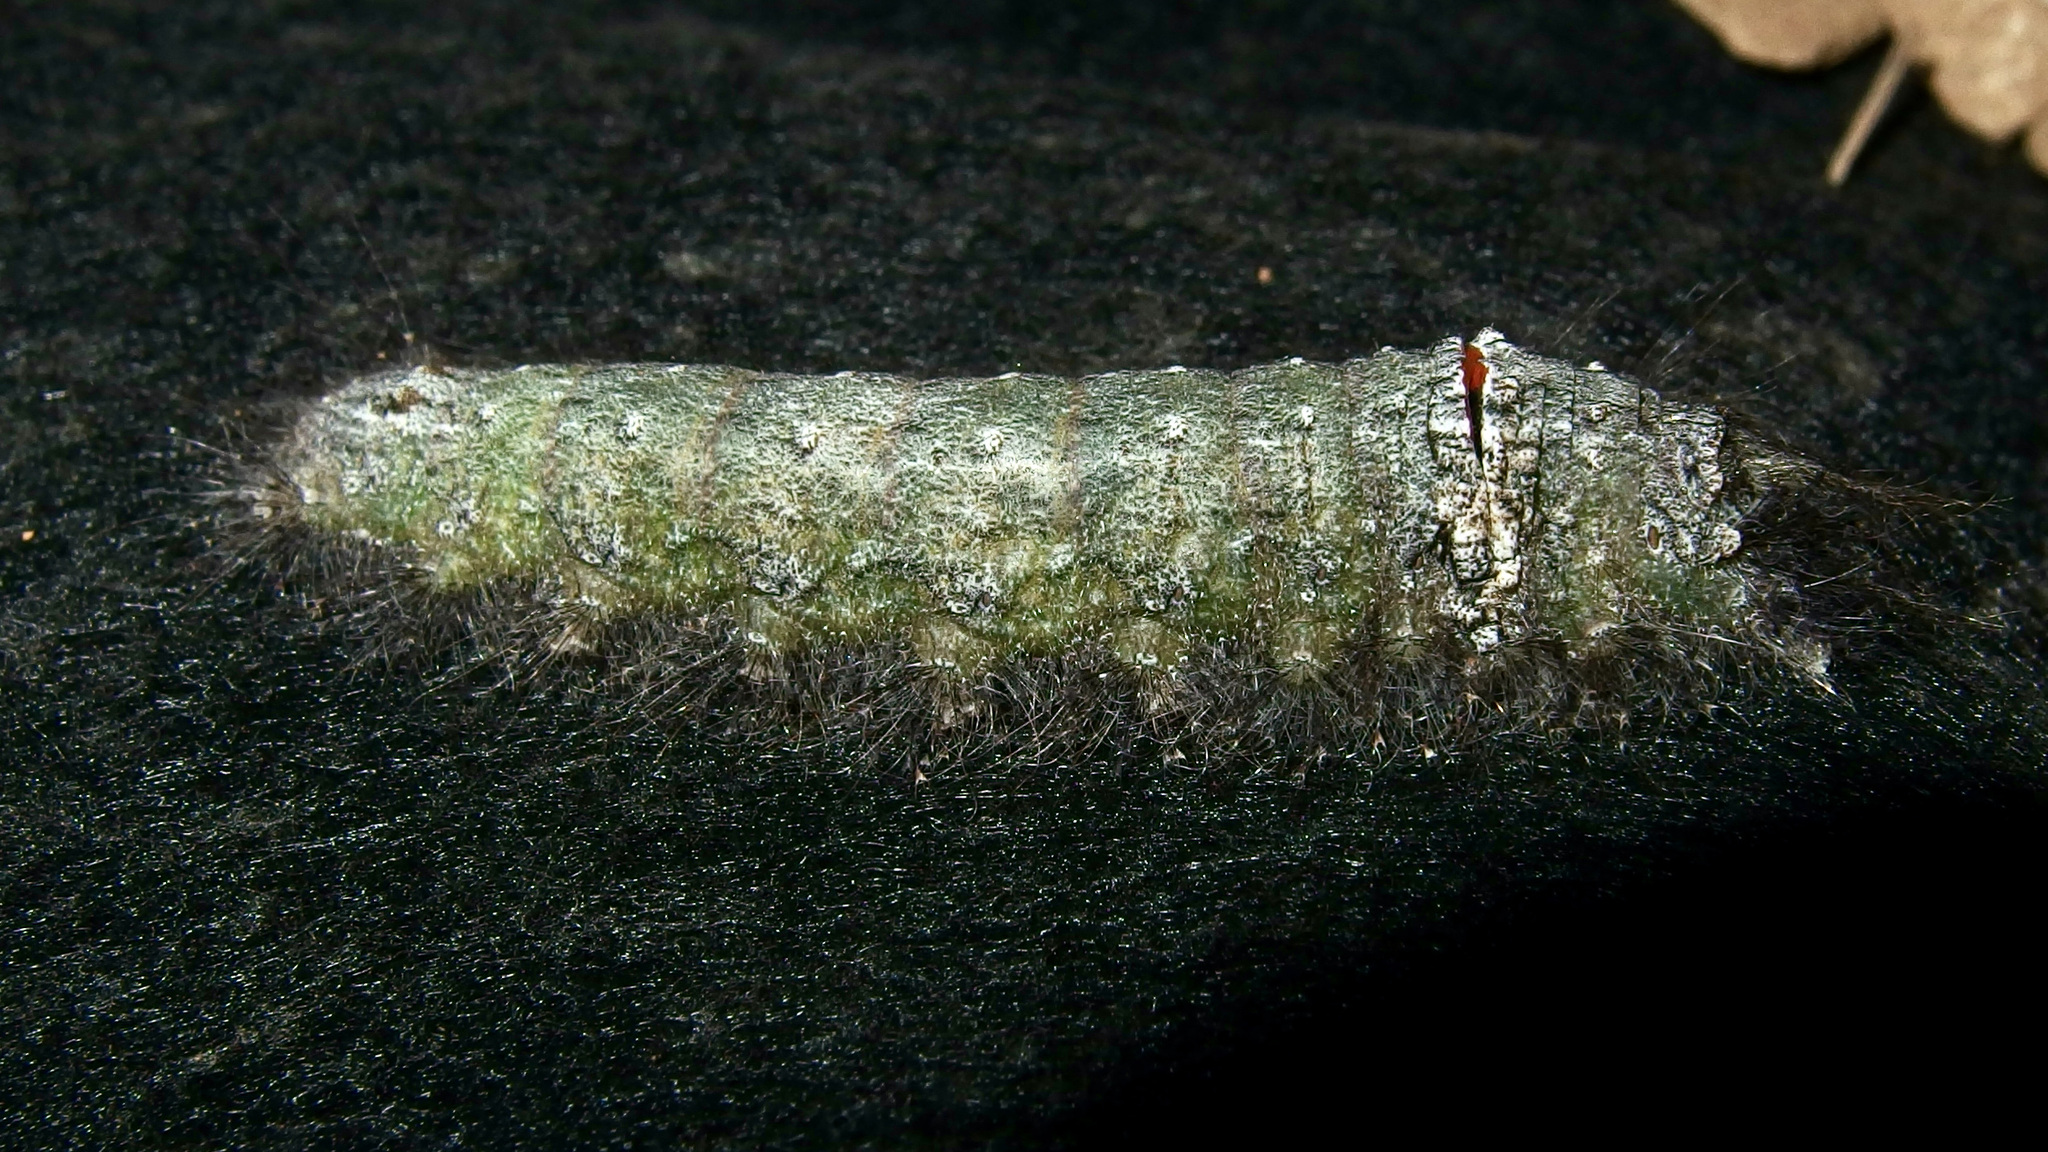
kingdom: Animalia
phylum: Arthropoda
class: Insecta
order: Lepidoptera
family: Lasiocampidae
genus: Apotolype
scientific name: Apotolype brevicrista
